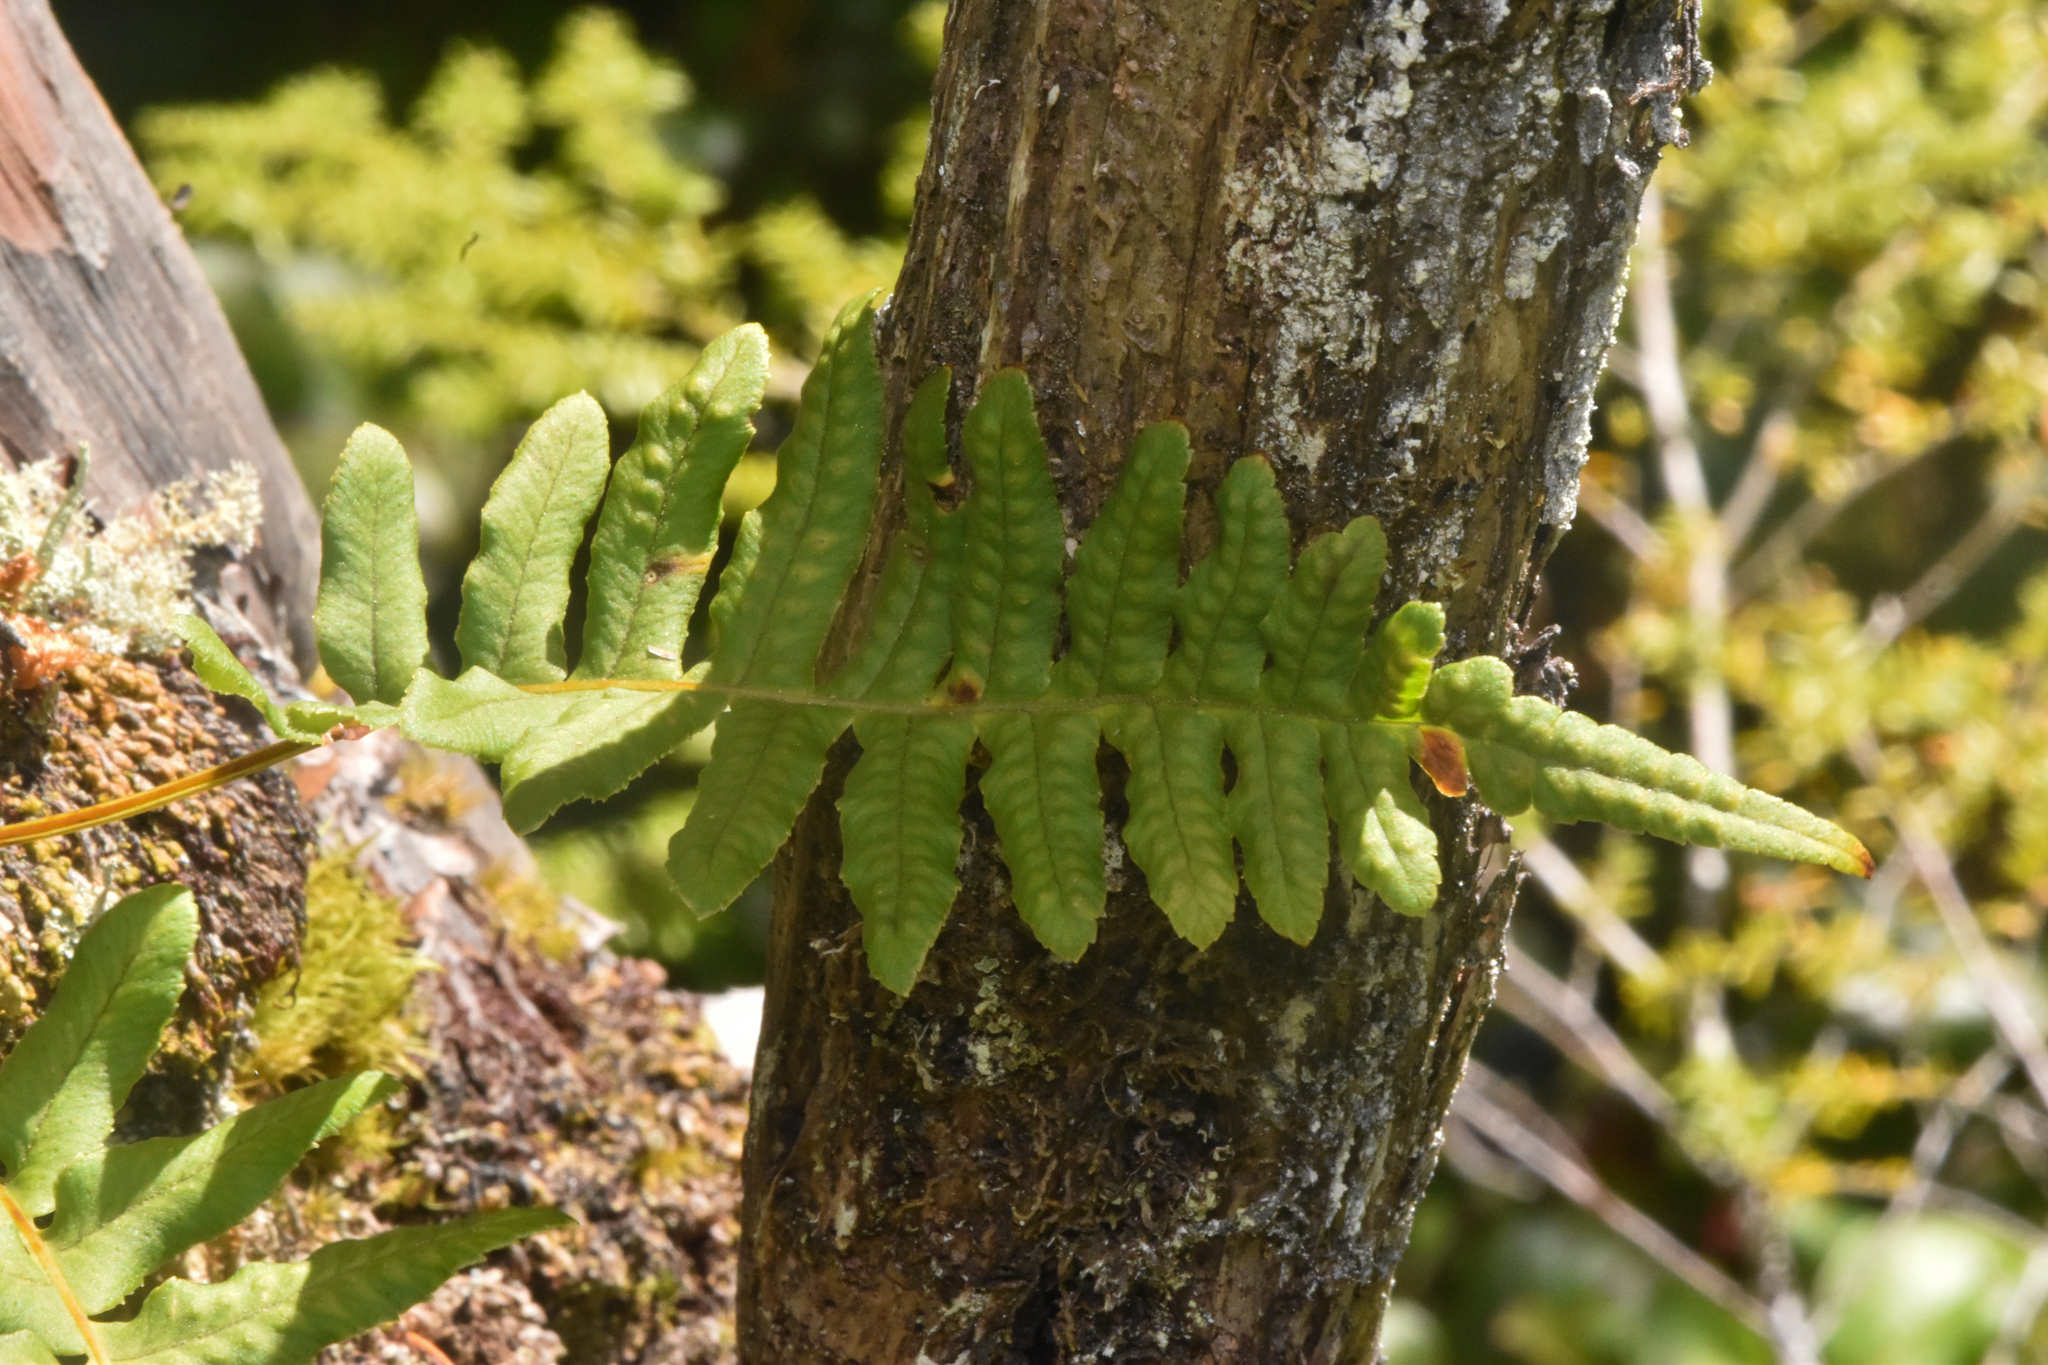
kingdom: Plantae
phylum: Tracheophyta
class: Polypodiopsida
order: Polypodiales
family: Polypodiaceae
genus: Polypodium
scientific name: Polypodium glycyrrhiza
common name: Licorice fern
